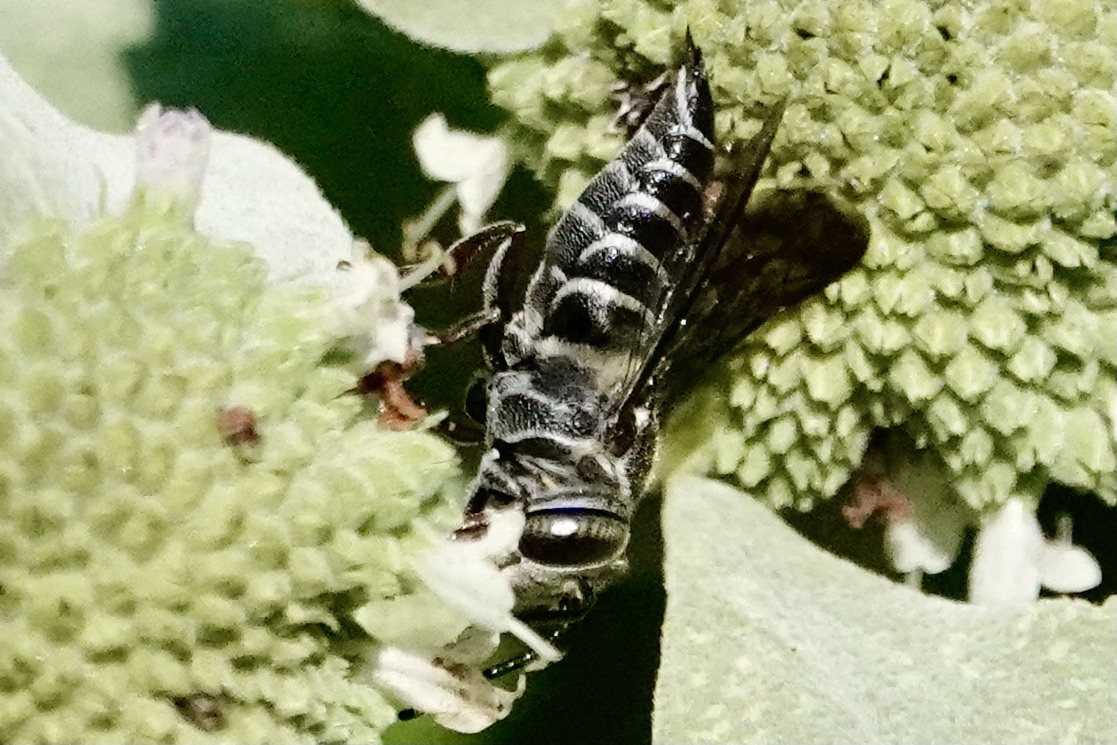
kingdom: Animalia
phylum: Arthropoda
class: Insecta
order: Hymenoptera
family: Megachilidae
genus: Coelioxys
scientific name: Coelioxys sayi
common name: Say's cuckoo leaf-cutter bee
